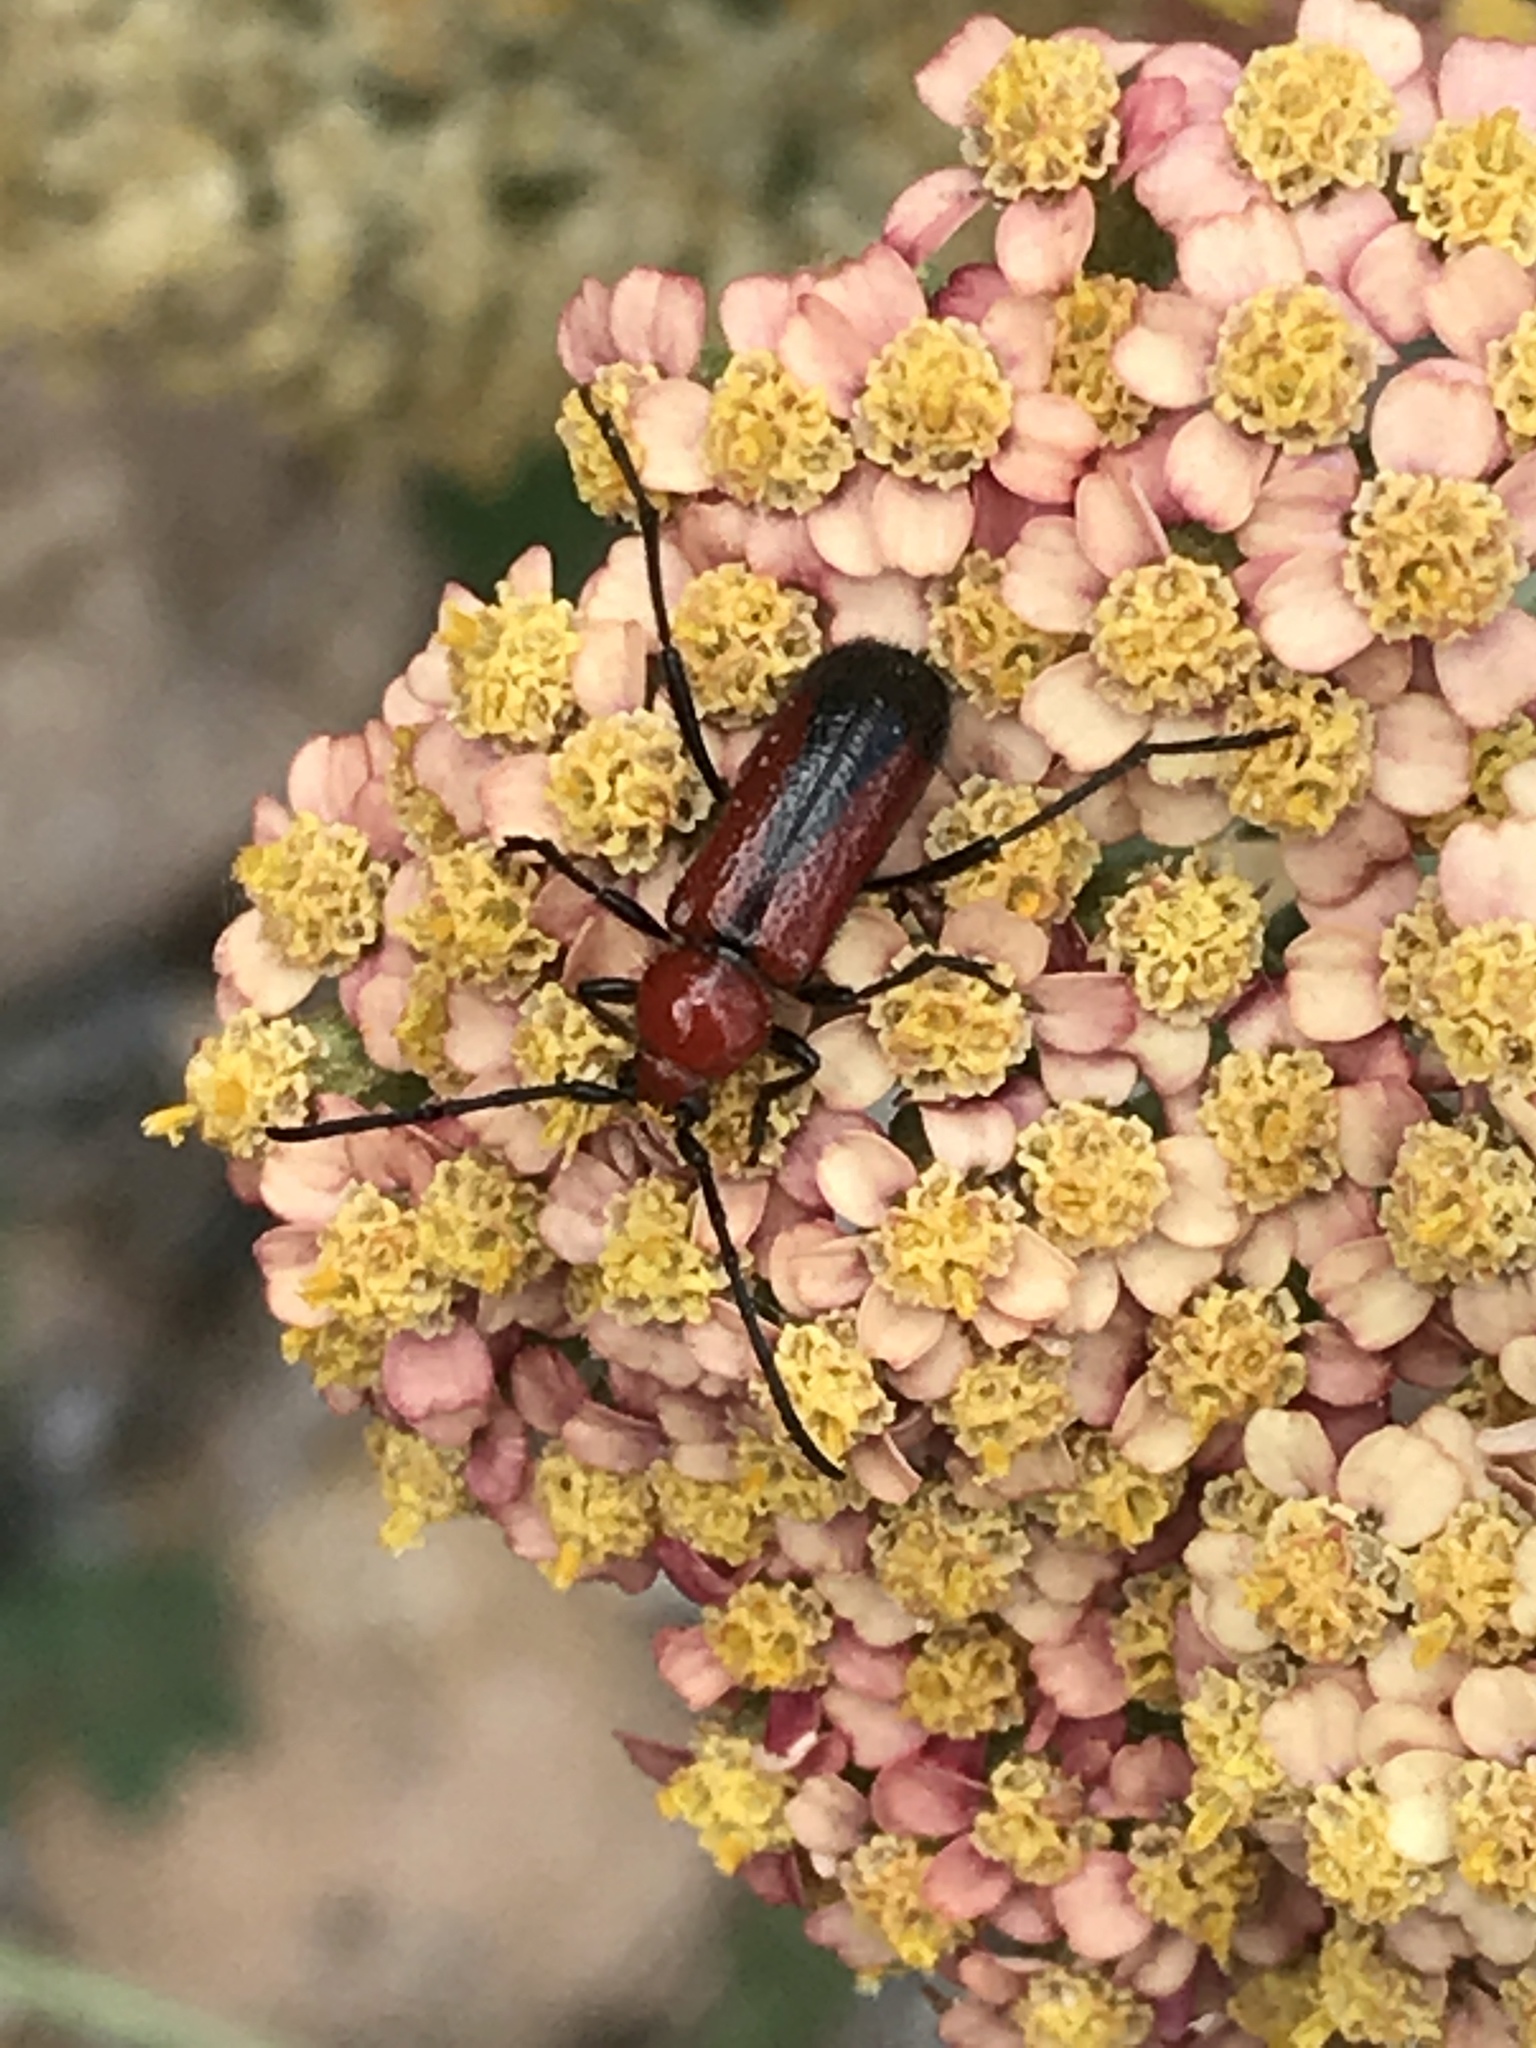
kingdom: Animalia
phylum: Arthropoda
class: Insecta
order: Coleoptera
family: Cerambycidae
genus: Batyle
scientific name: Batyle suturalis
